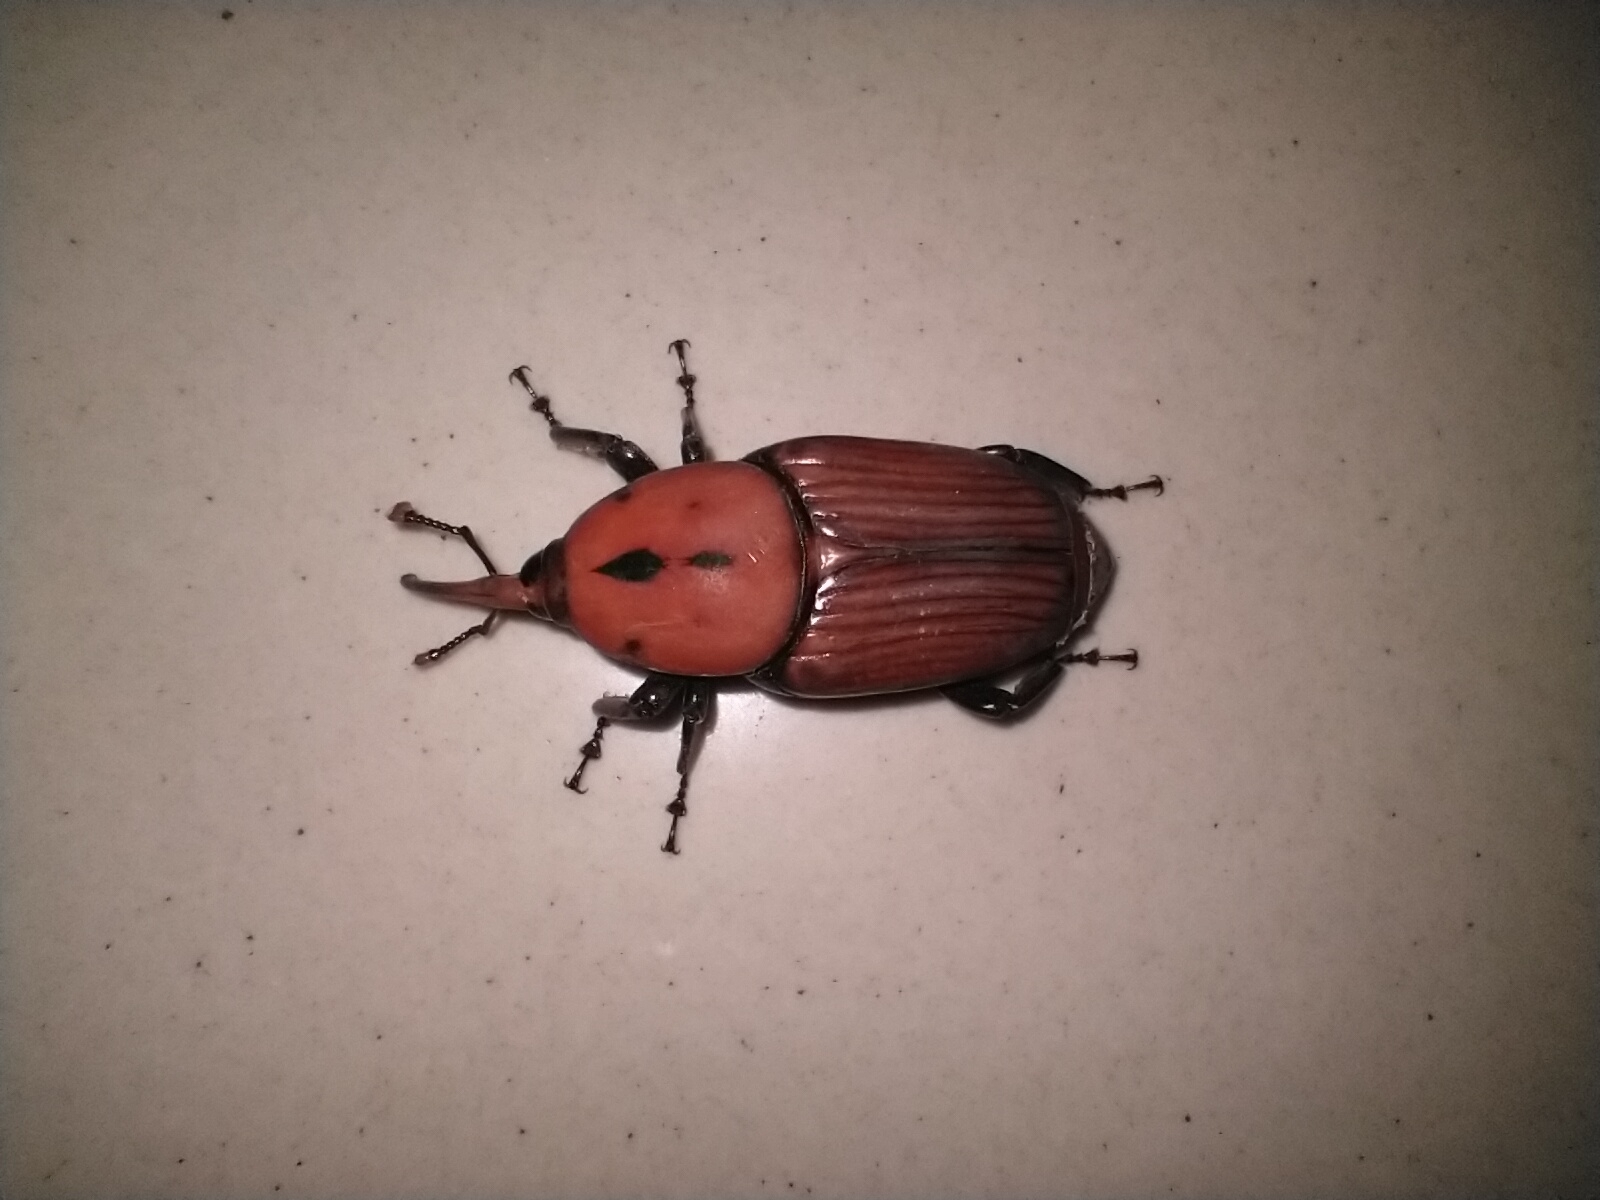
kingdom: Animalia
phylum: Arthropoda
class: Insecta
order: Coleoptera
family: Dryophthoridae
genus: Rhynchophorus
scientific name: Rhynchophorus ferrugineus
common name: Red palm weevil
